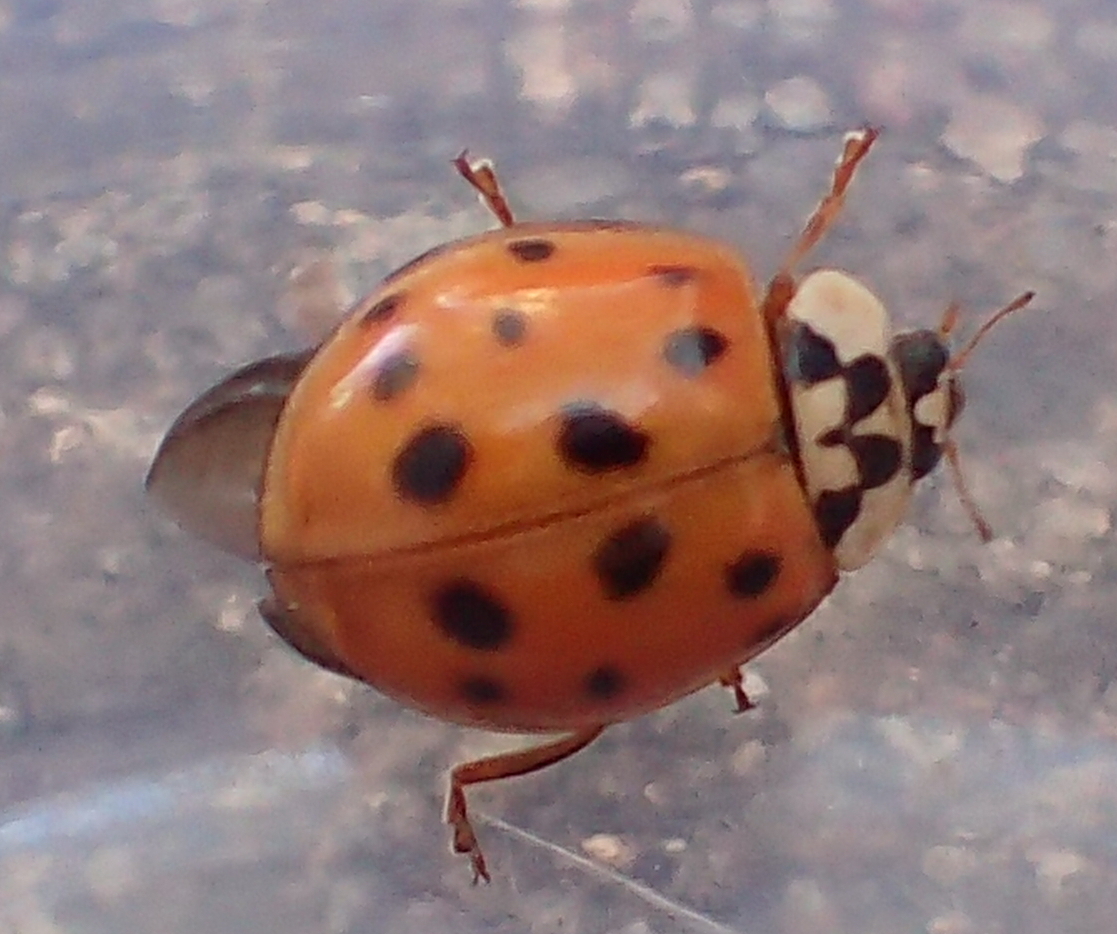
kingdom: Animalia
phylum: Arthropoda
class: Insecta
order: Coleoptera
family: Coccinellidae
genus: Harmonia
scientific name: Harmonia axyridis
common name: Harlequin ladybird
